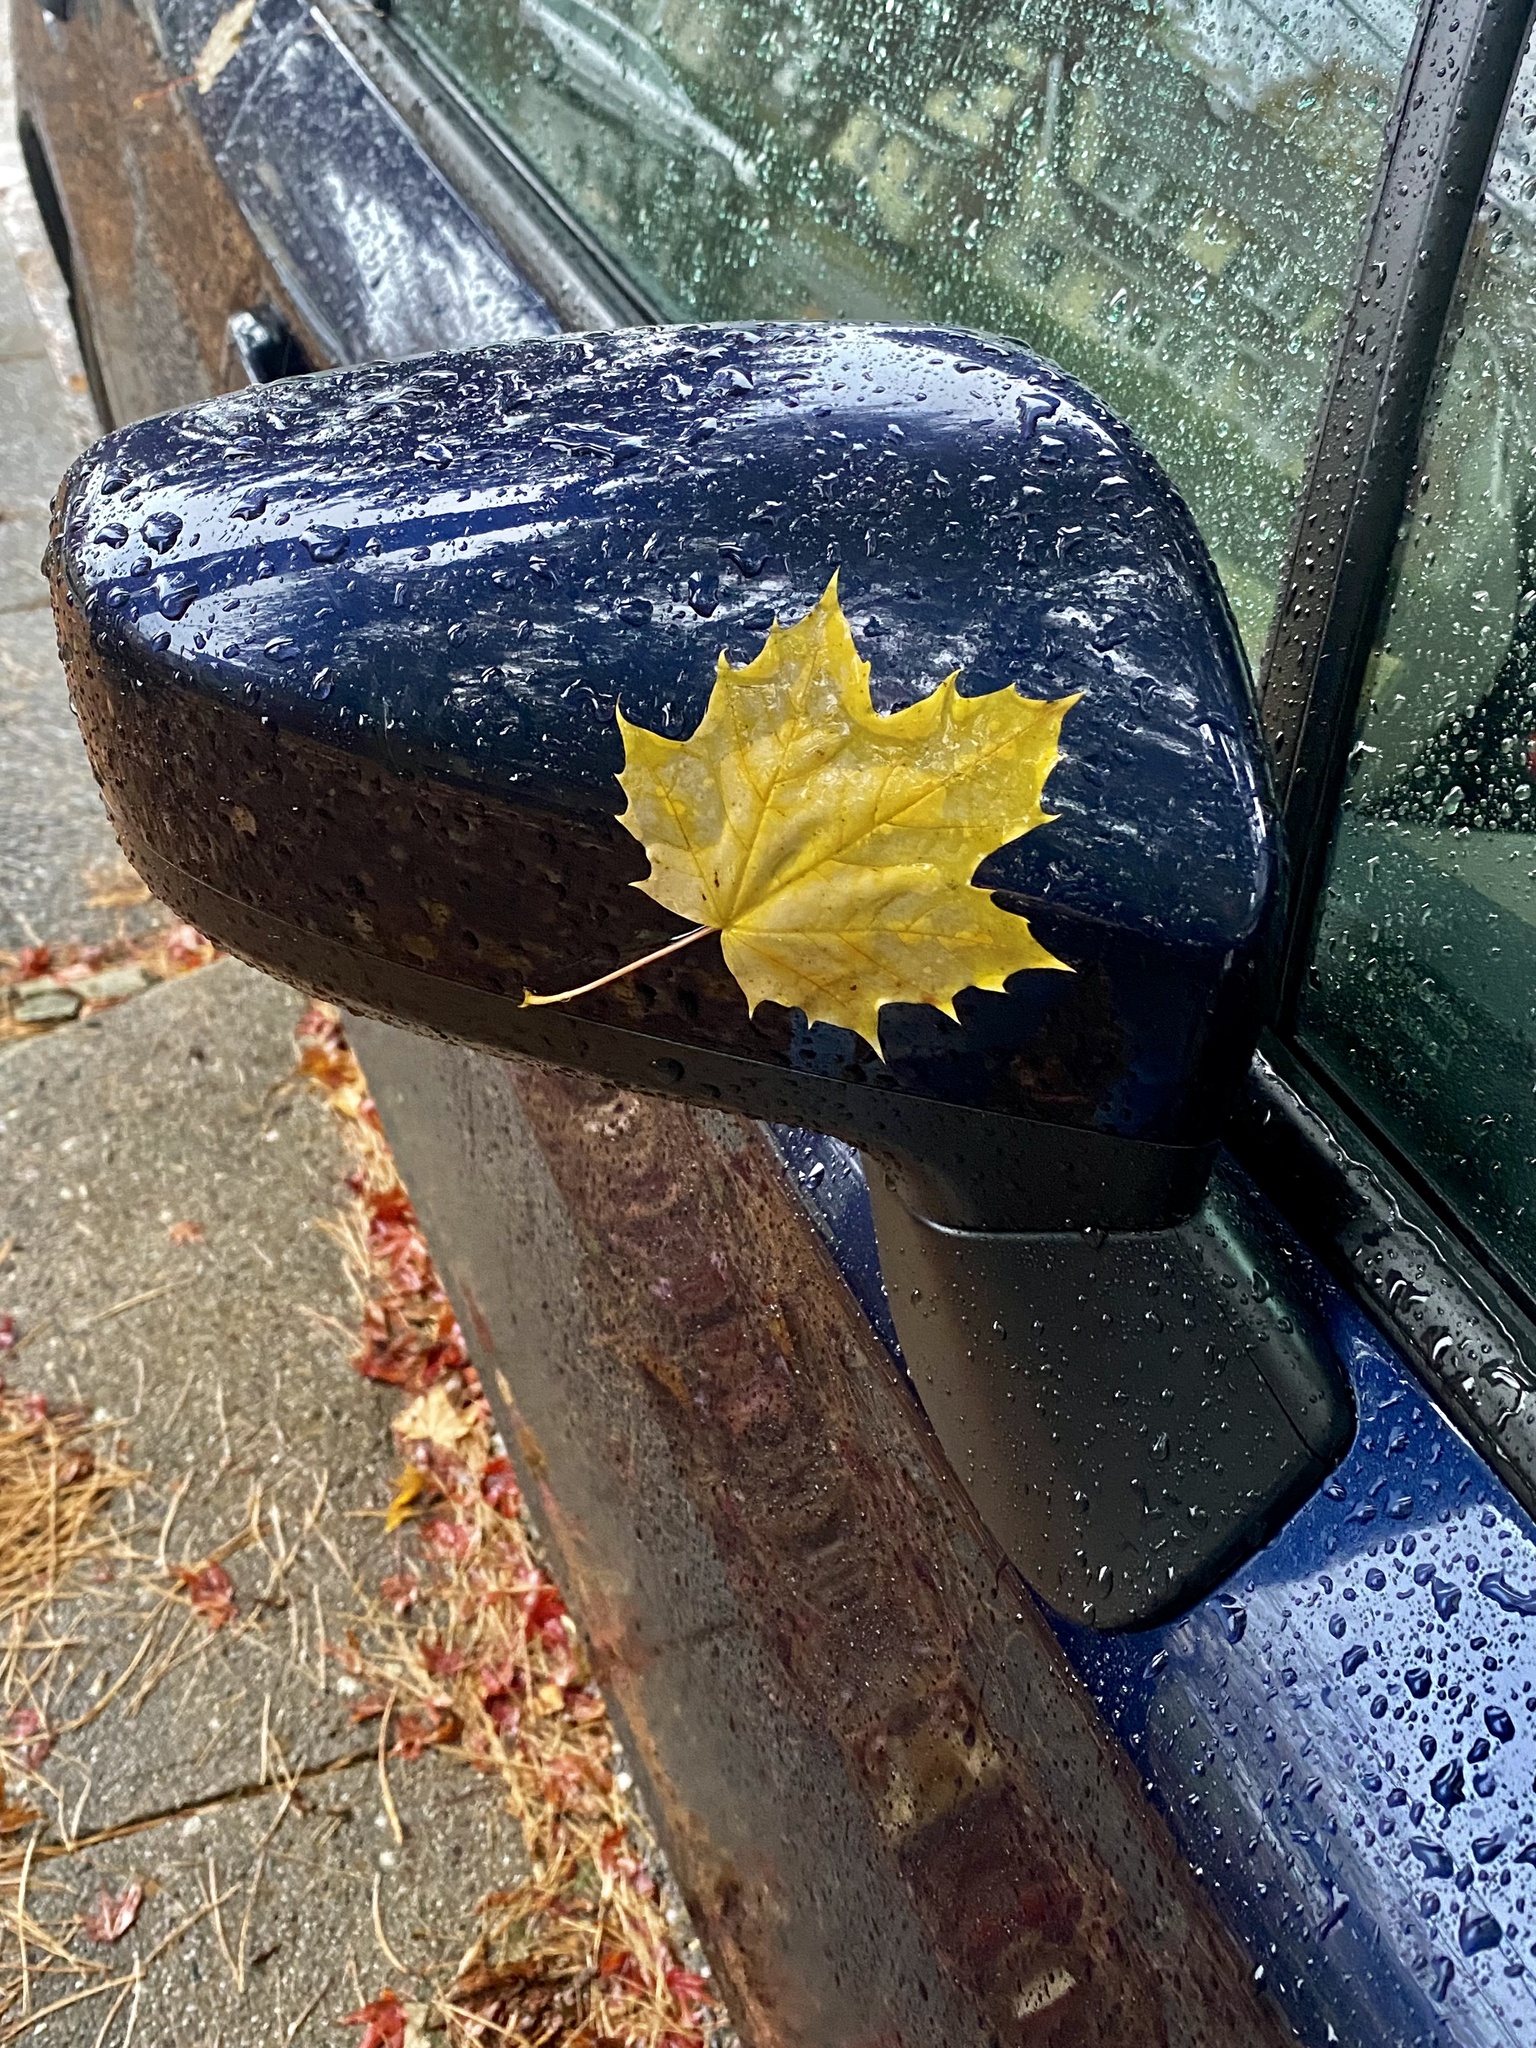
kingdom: Plantae
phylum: Tracheophyta
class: Magnoliopsida
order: Sapindales
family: Sapindaceae
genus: Acer
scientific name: Acer platanoides
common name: Norway maple
